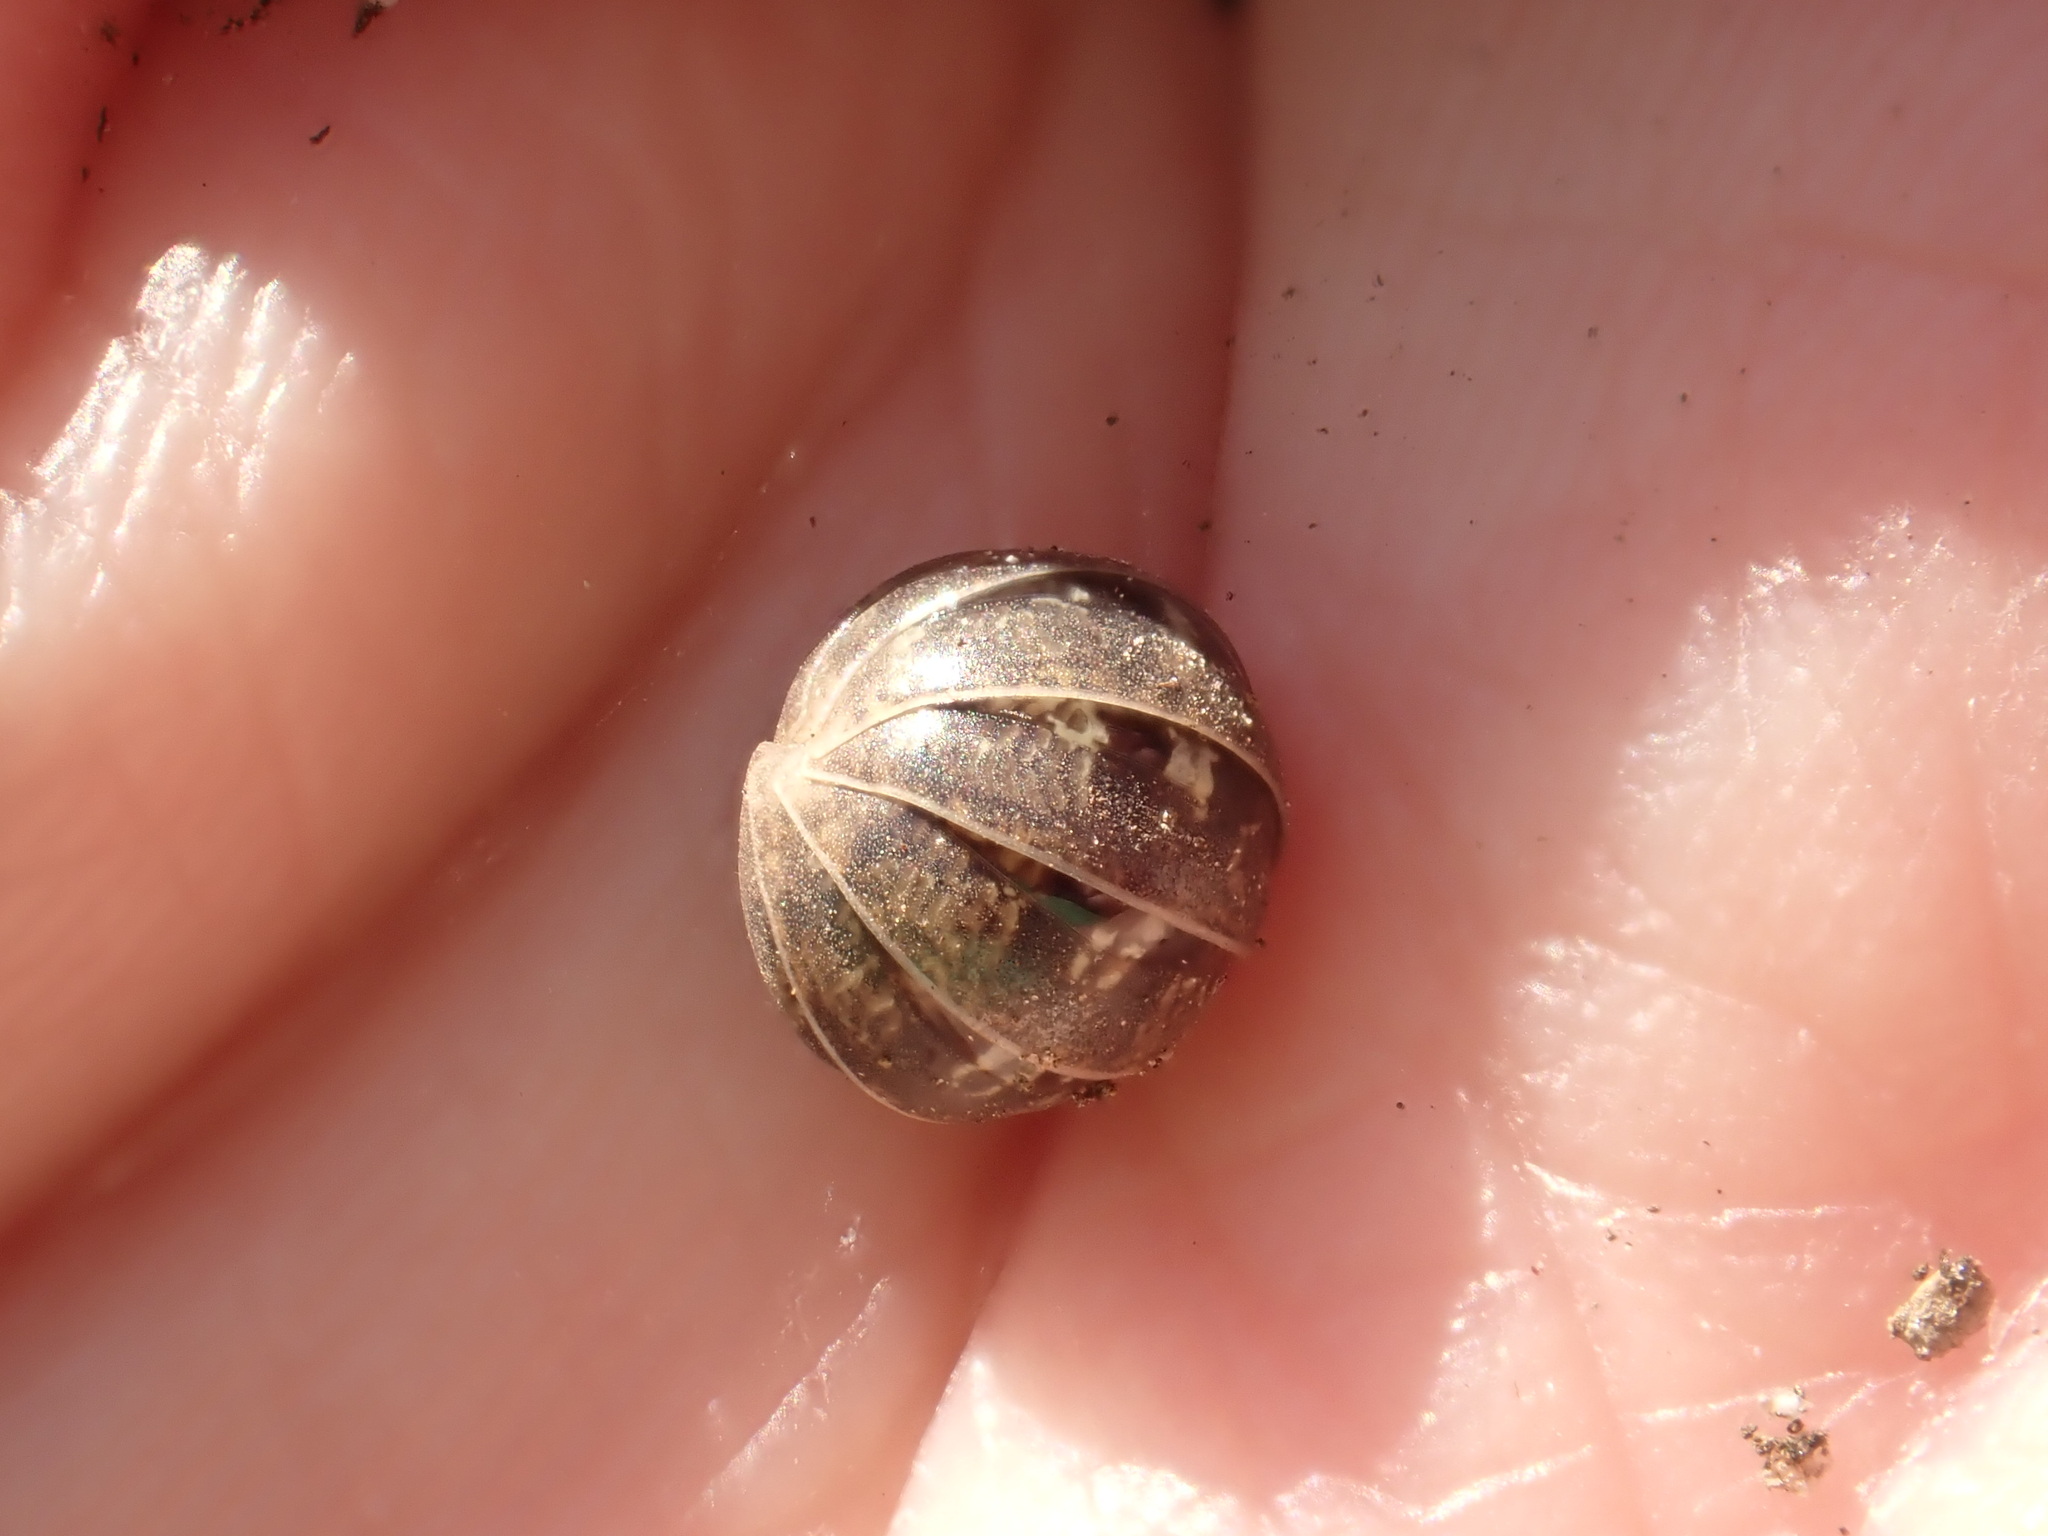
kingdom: Animalia
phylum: Arthropoda
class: Malacostraca
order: Isopoda
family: Armadillidiidae
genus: Armadillidium
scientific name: Armadillidium vulgare
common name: Common pill woodlouse
